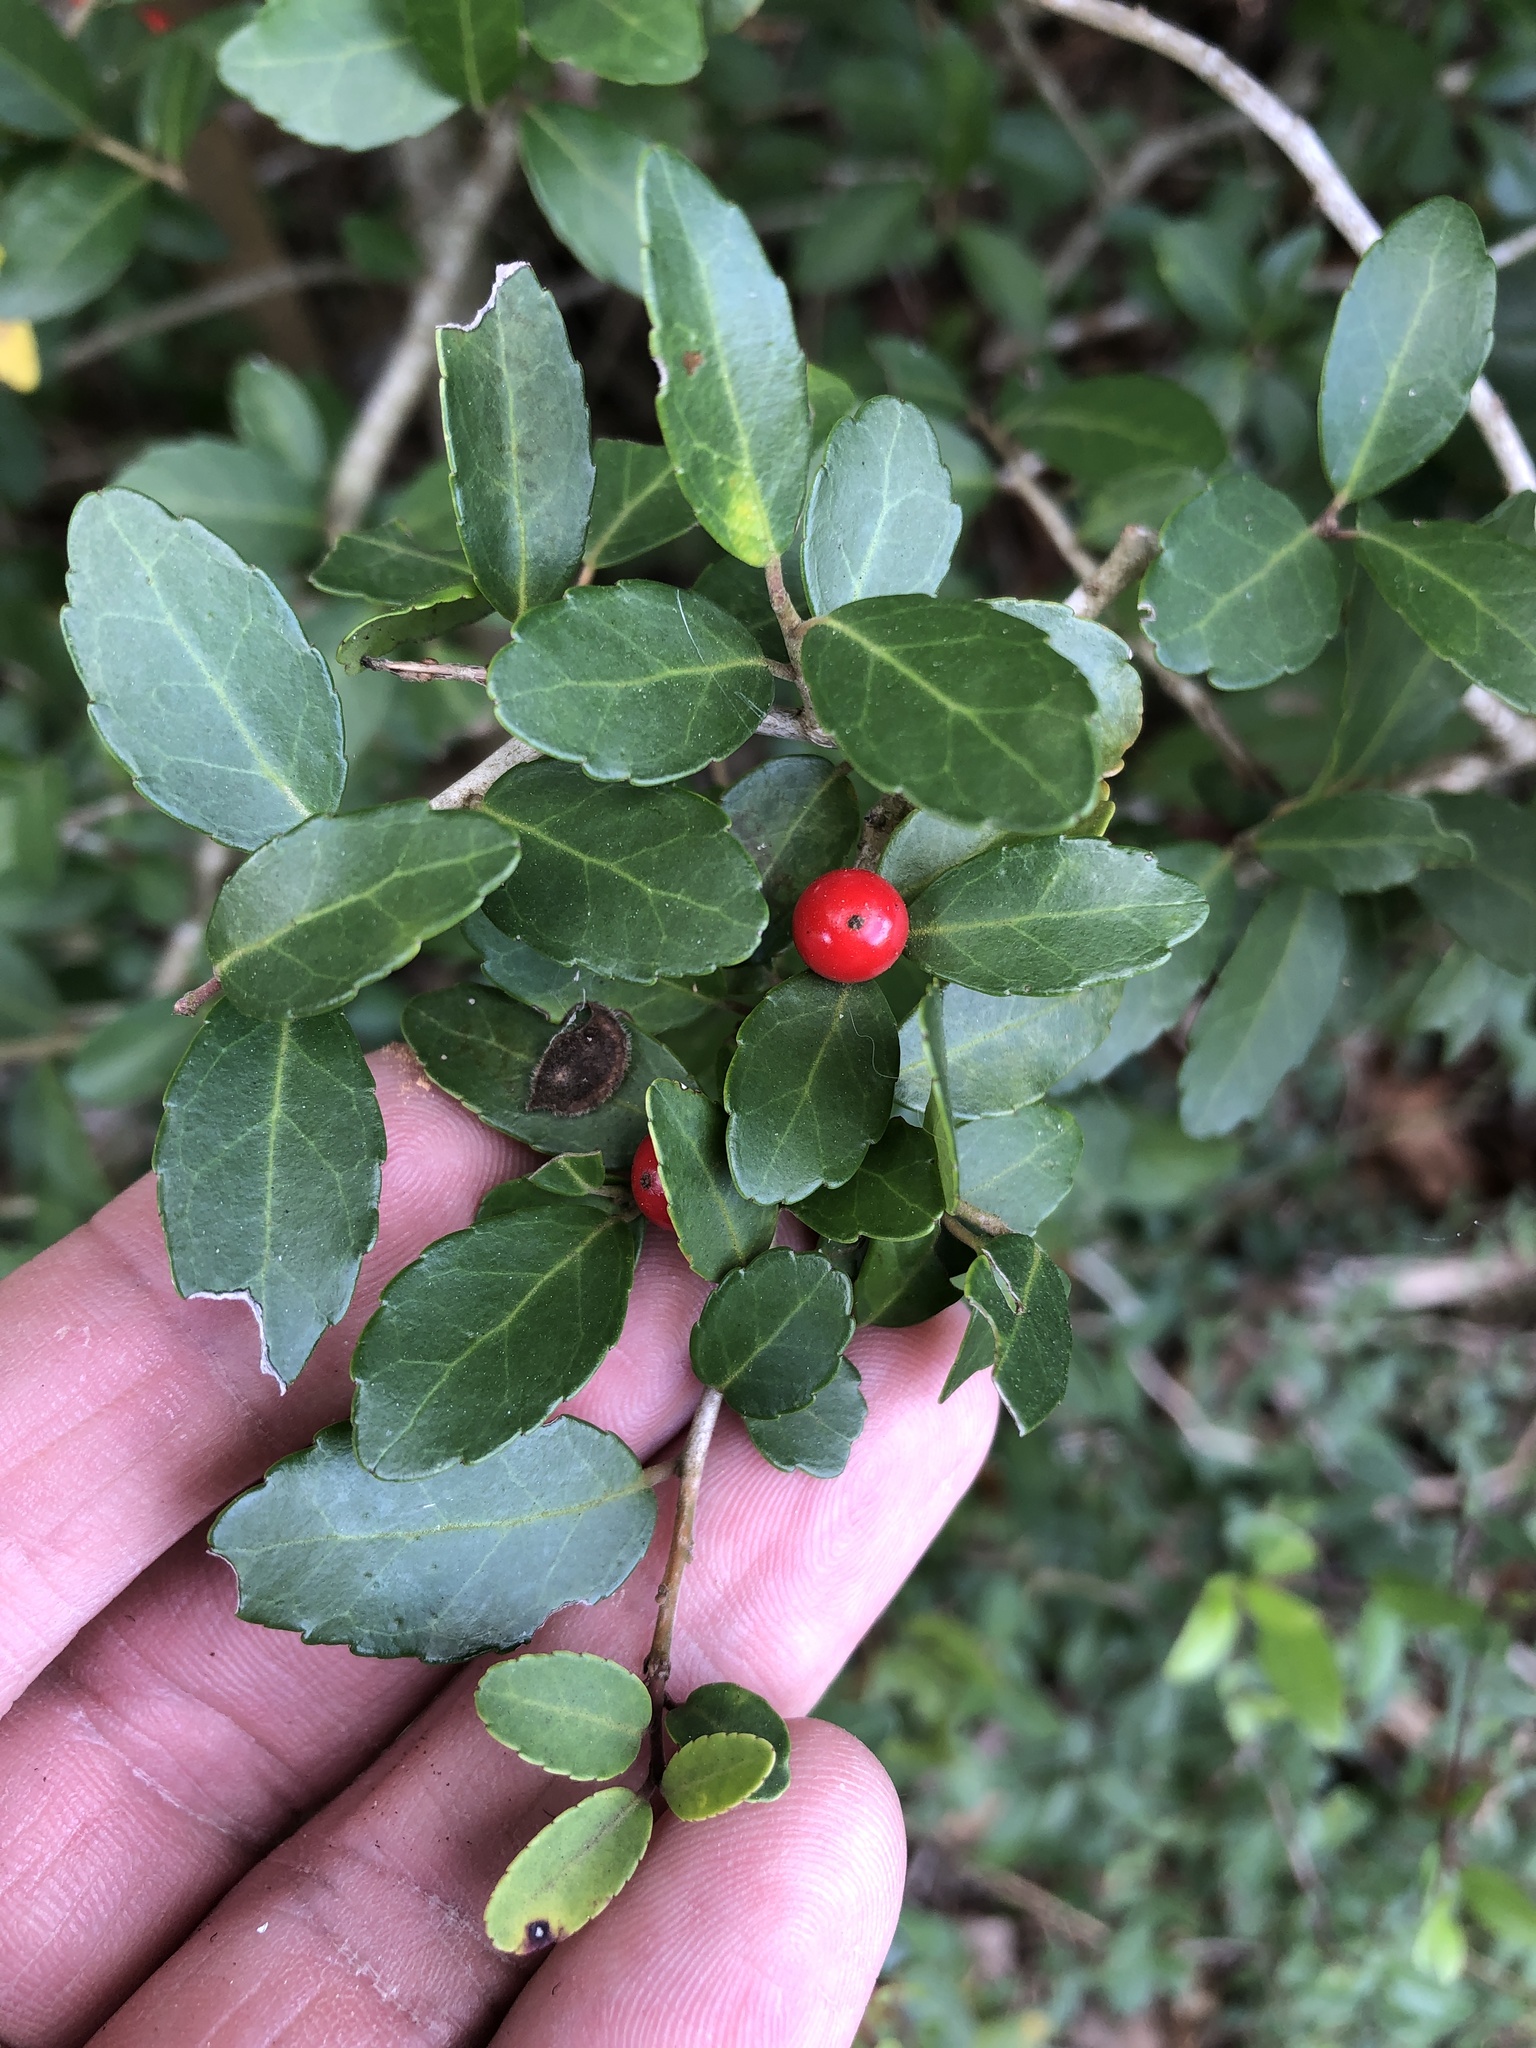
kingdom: Plantae
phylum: Tracheophyta
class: Magnoliopsida
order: Aquifoliales
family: Aquifoliaceae
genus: Ilex
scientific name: Ilex vomitoria
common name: Yaupon holly
